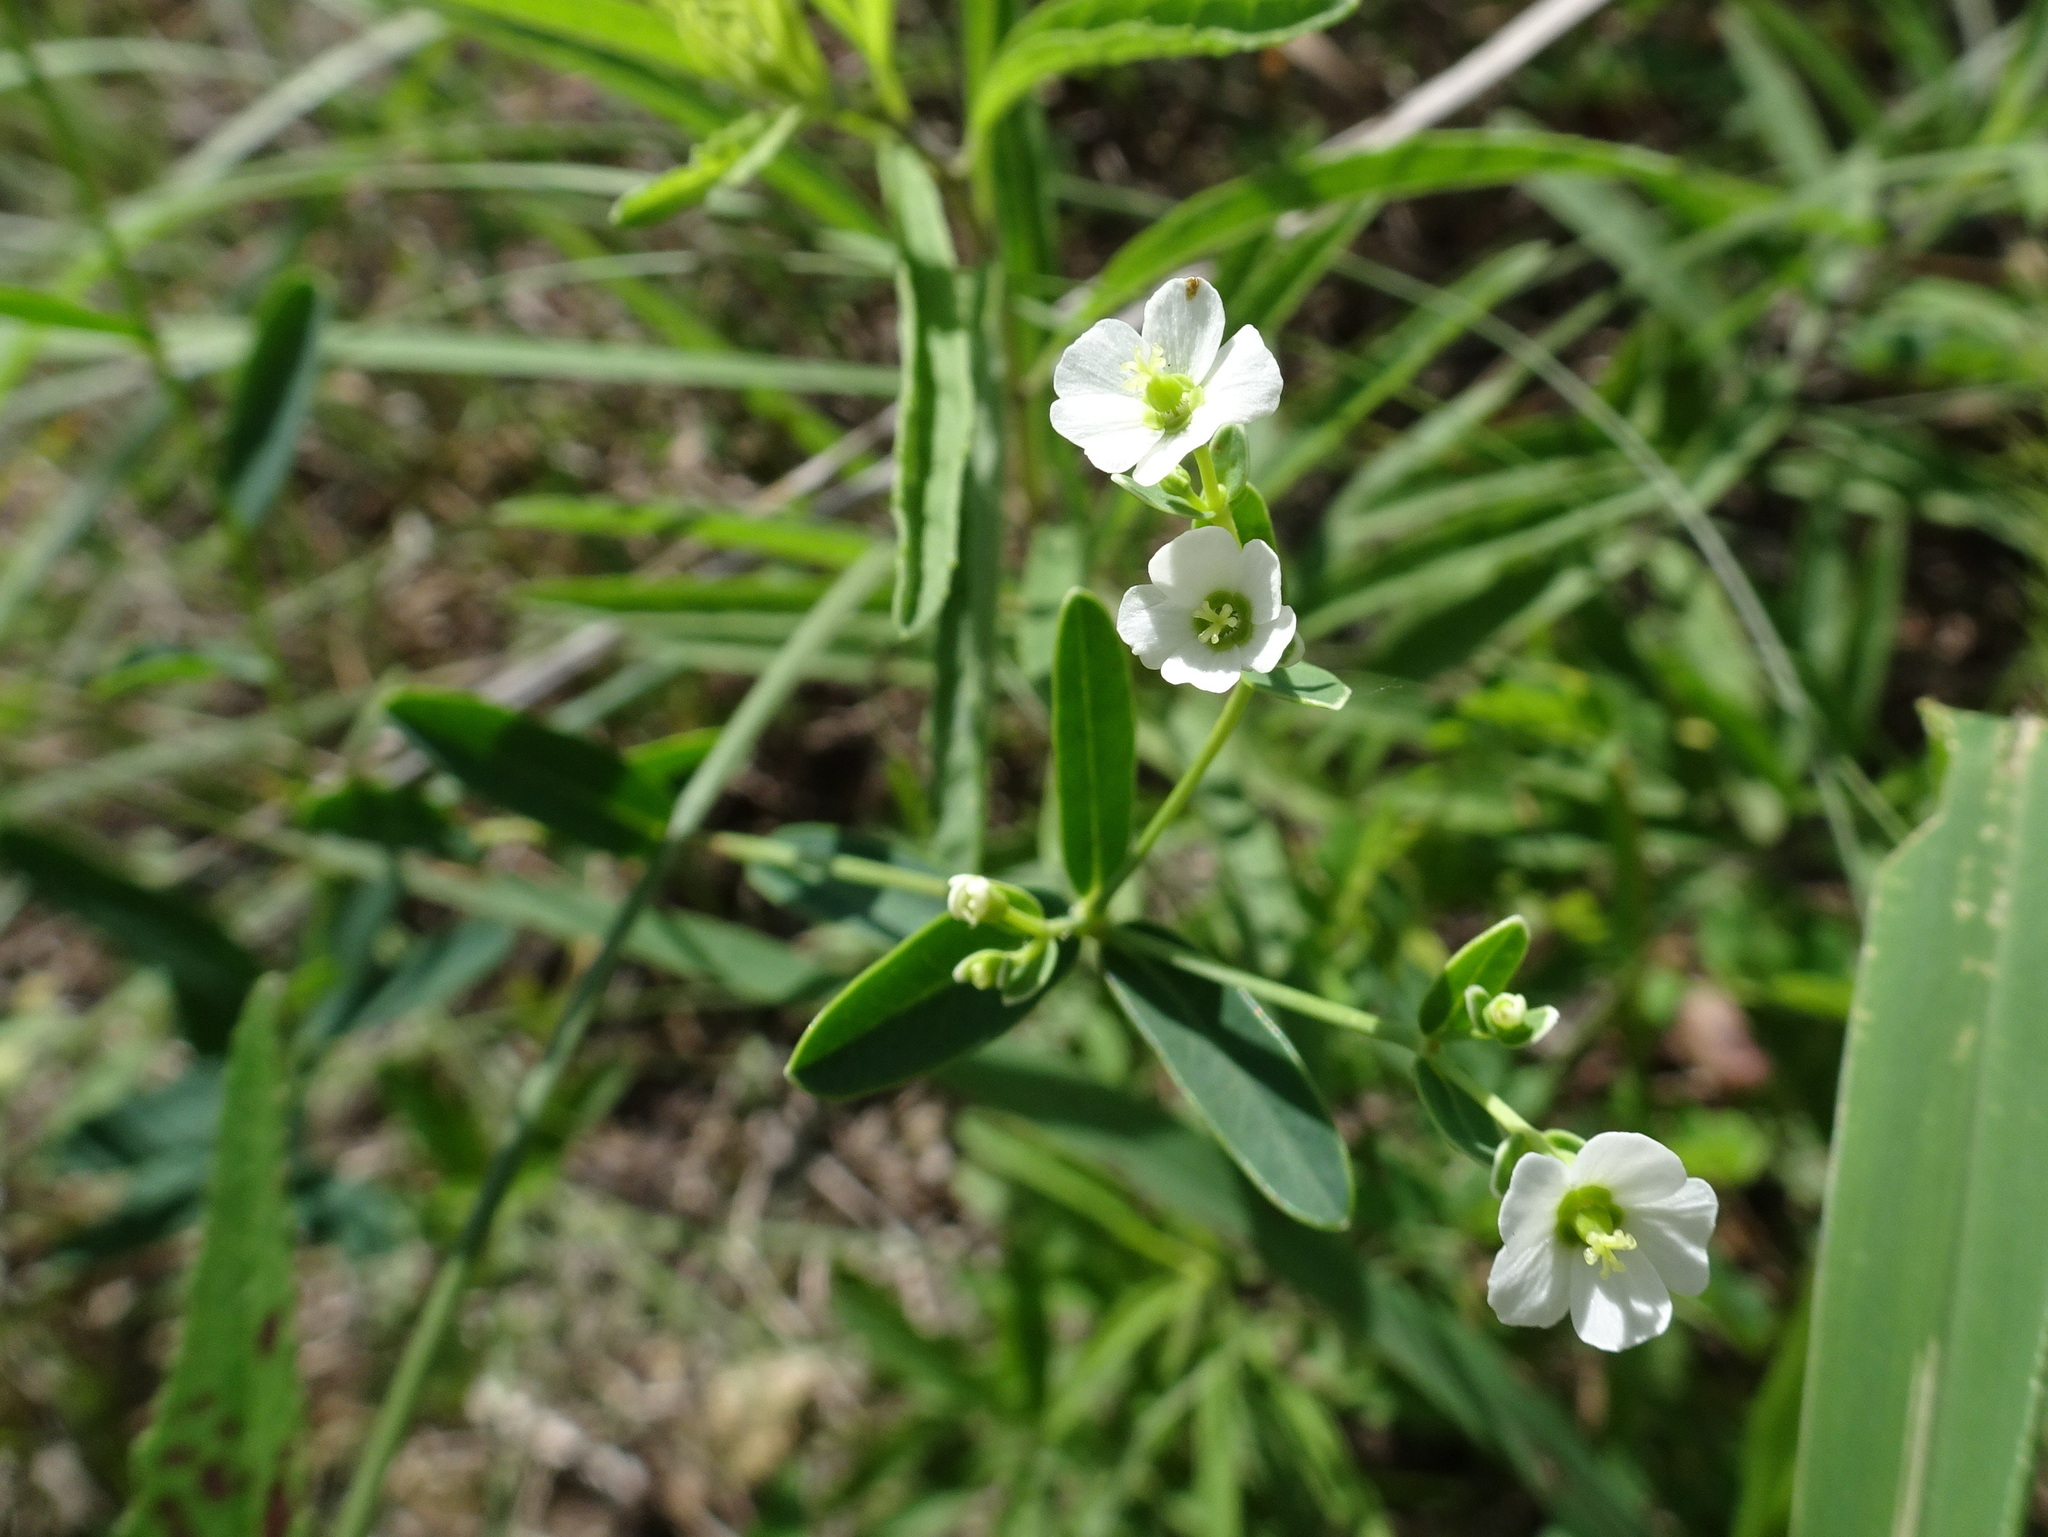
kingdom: Plantae
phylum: Tracheophyta
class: Magnoliopsida
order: Malpighiales
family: Euphorbiaceae
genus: Euphorbia
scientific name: Euphorbia corollata
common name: Flowering spurge
